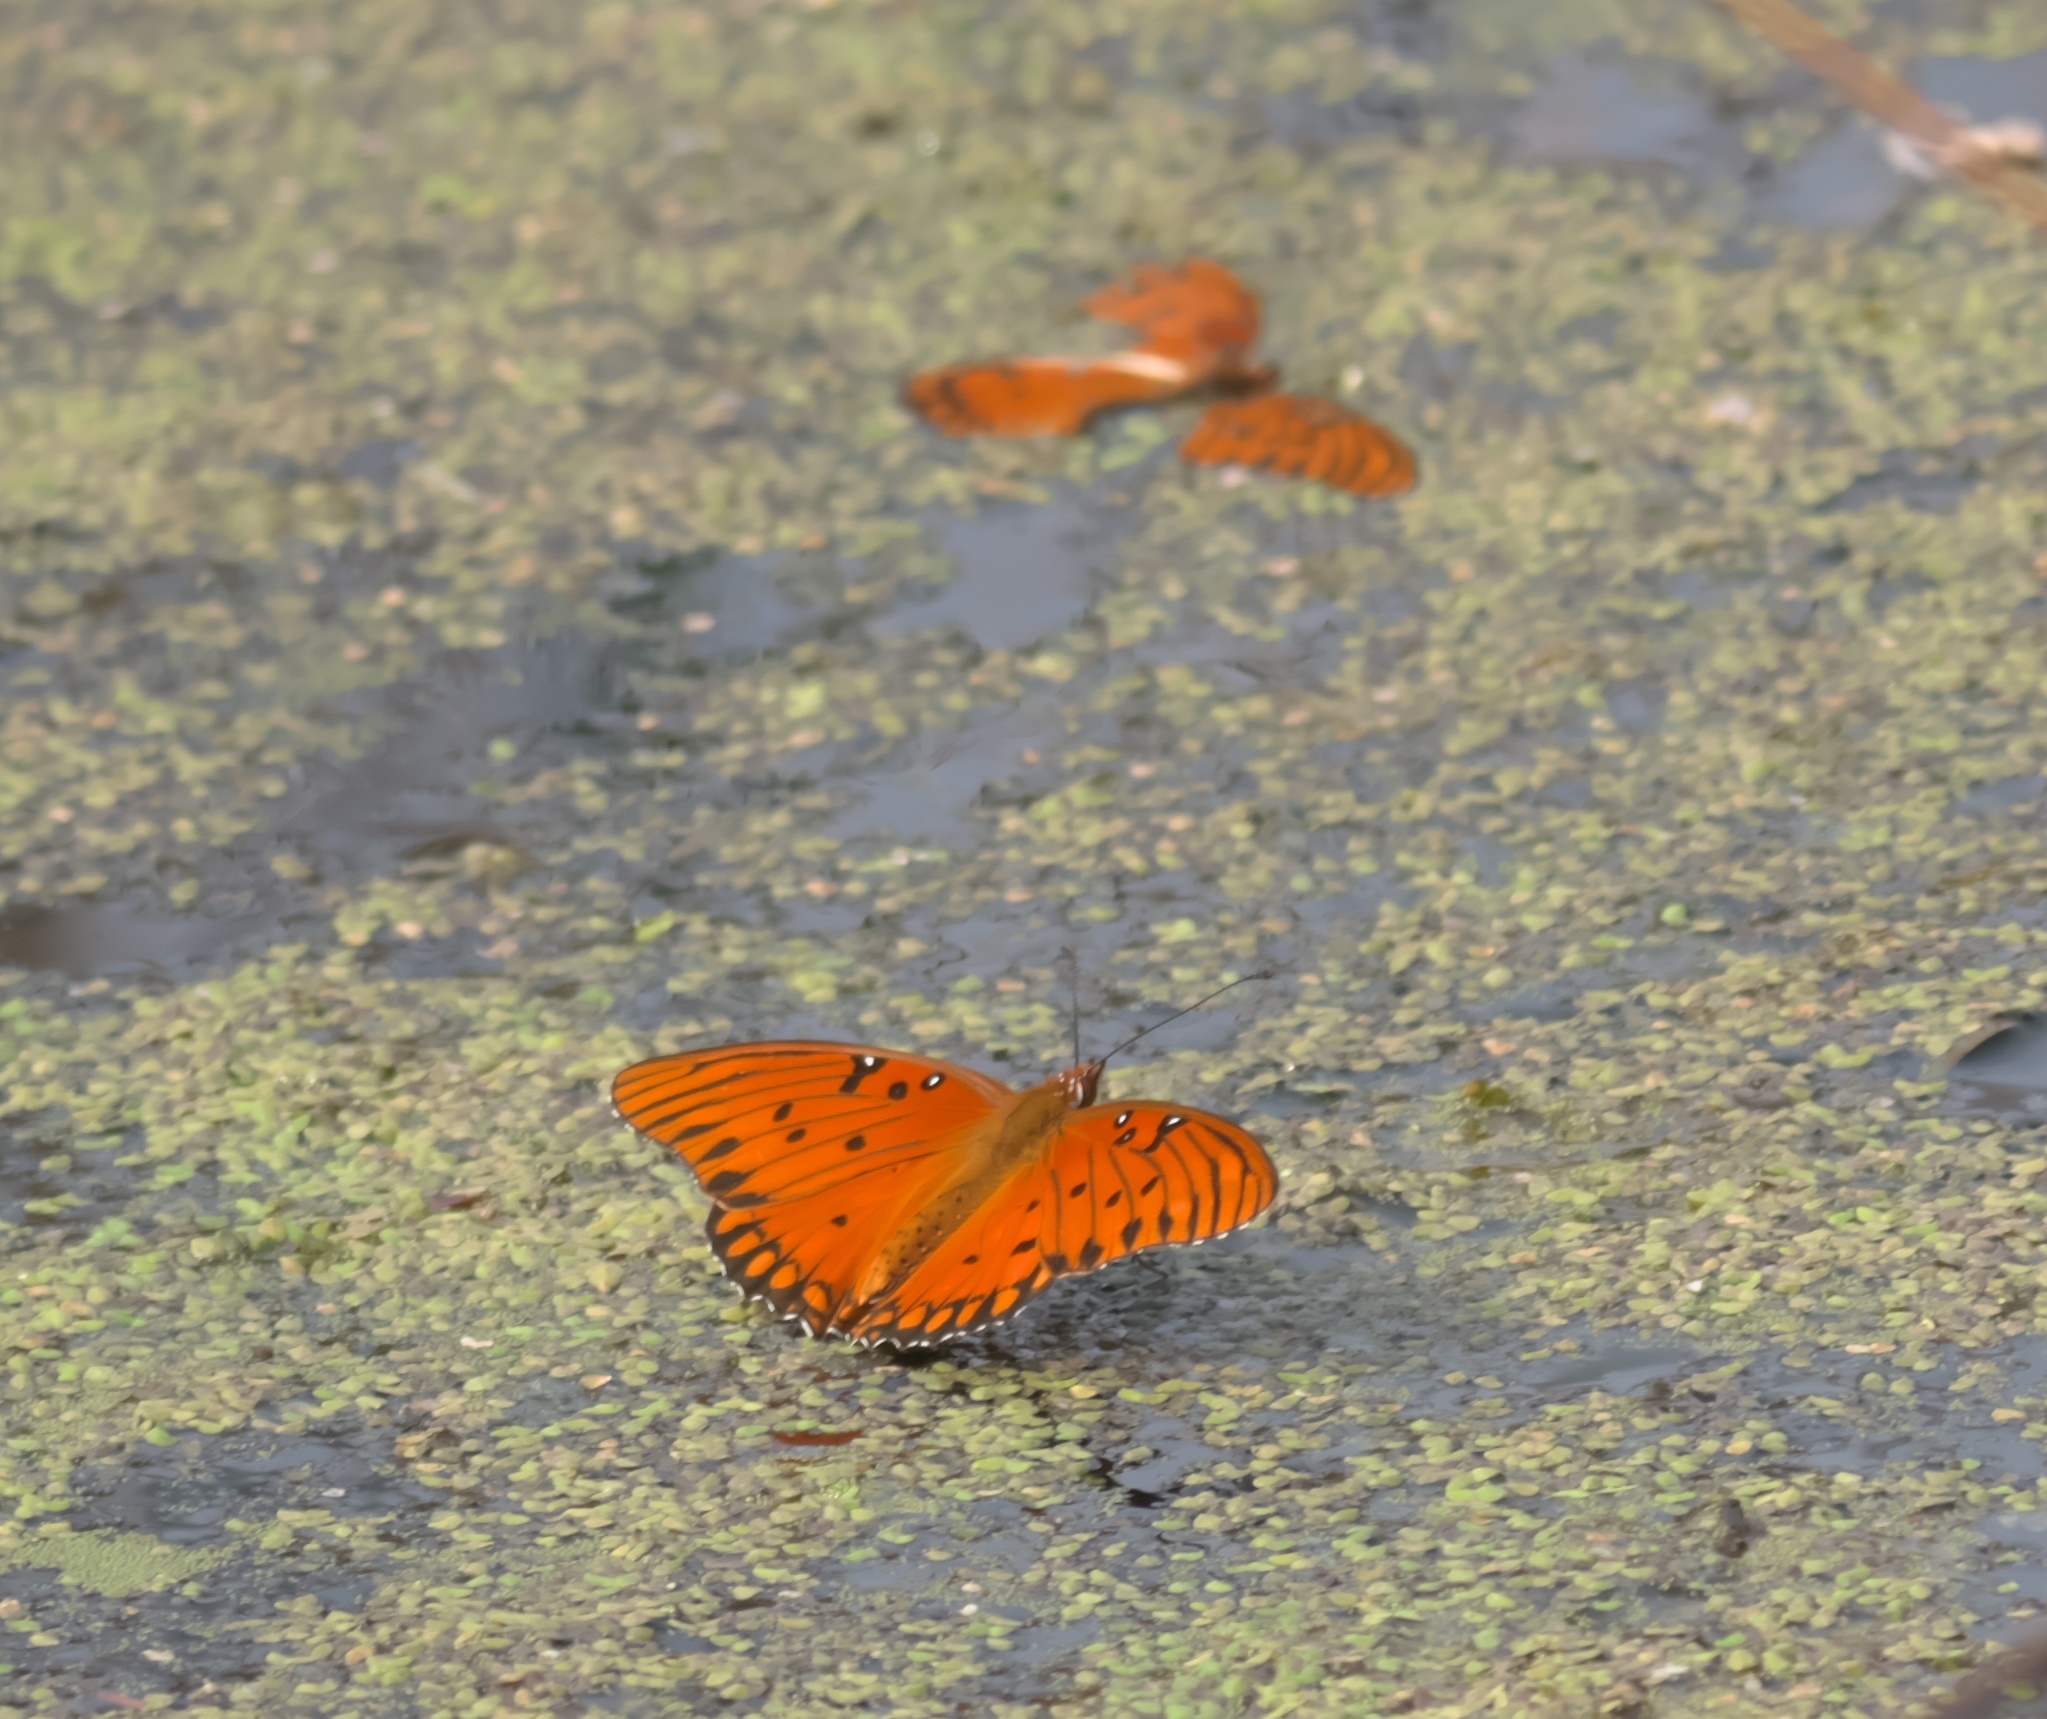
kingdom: Animalia
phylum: Arthropoda
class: Insecta
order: Lepidoptera
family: Nymphalidae
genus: Dione
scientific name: Dione vanillae
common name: Gulf fritillary
